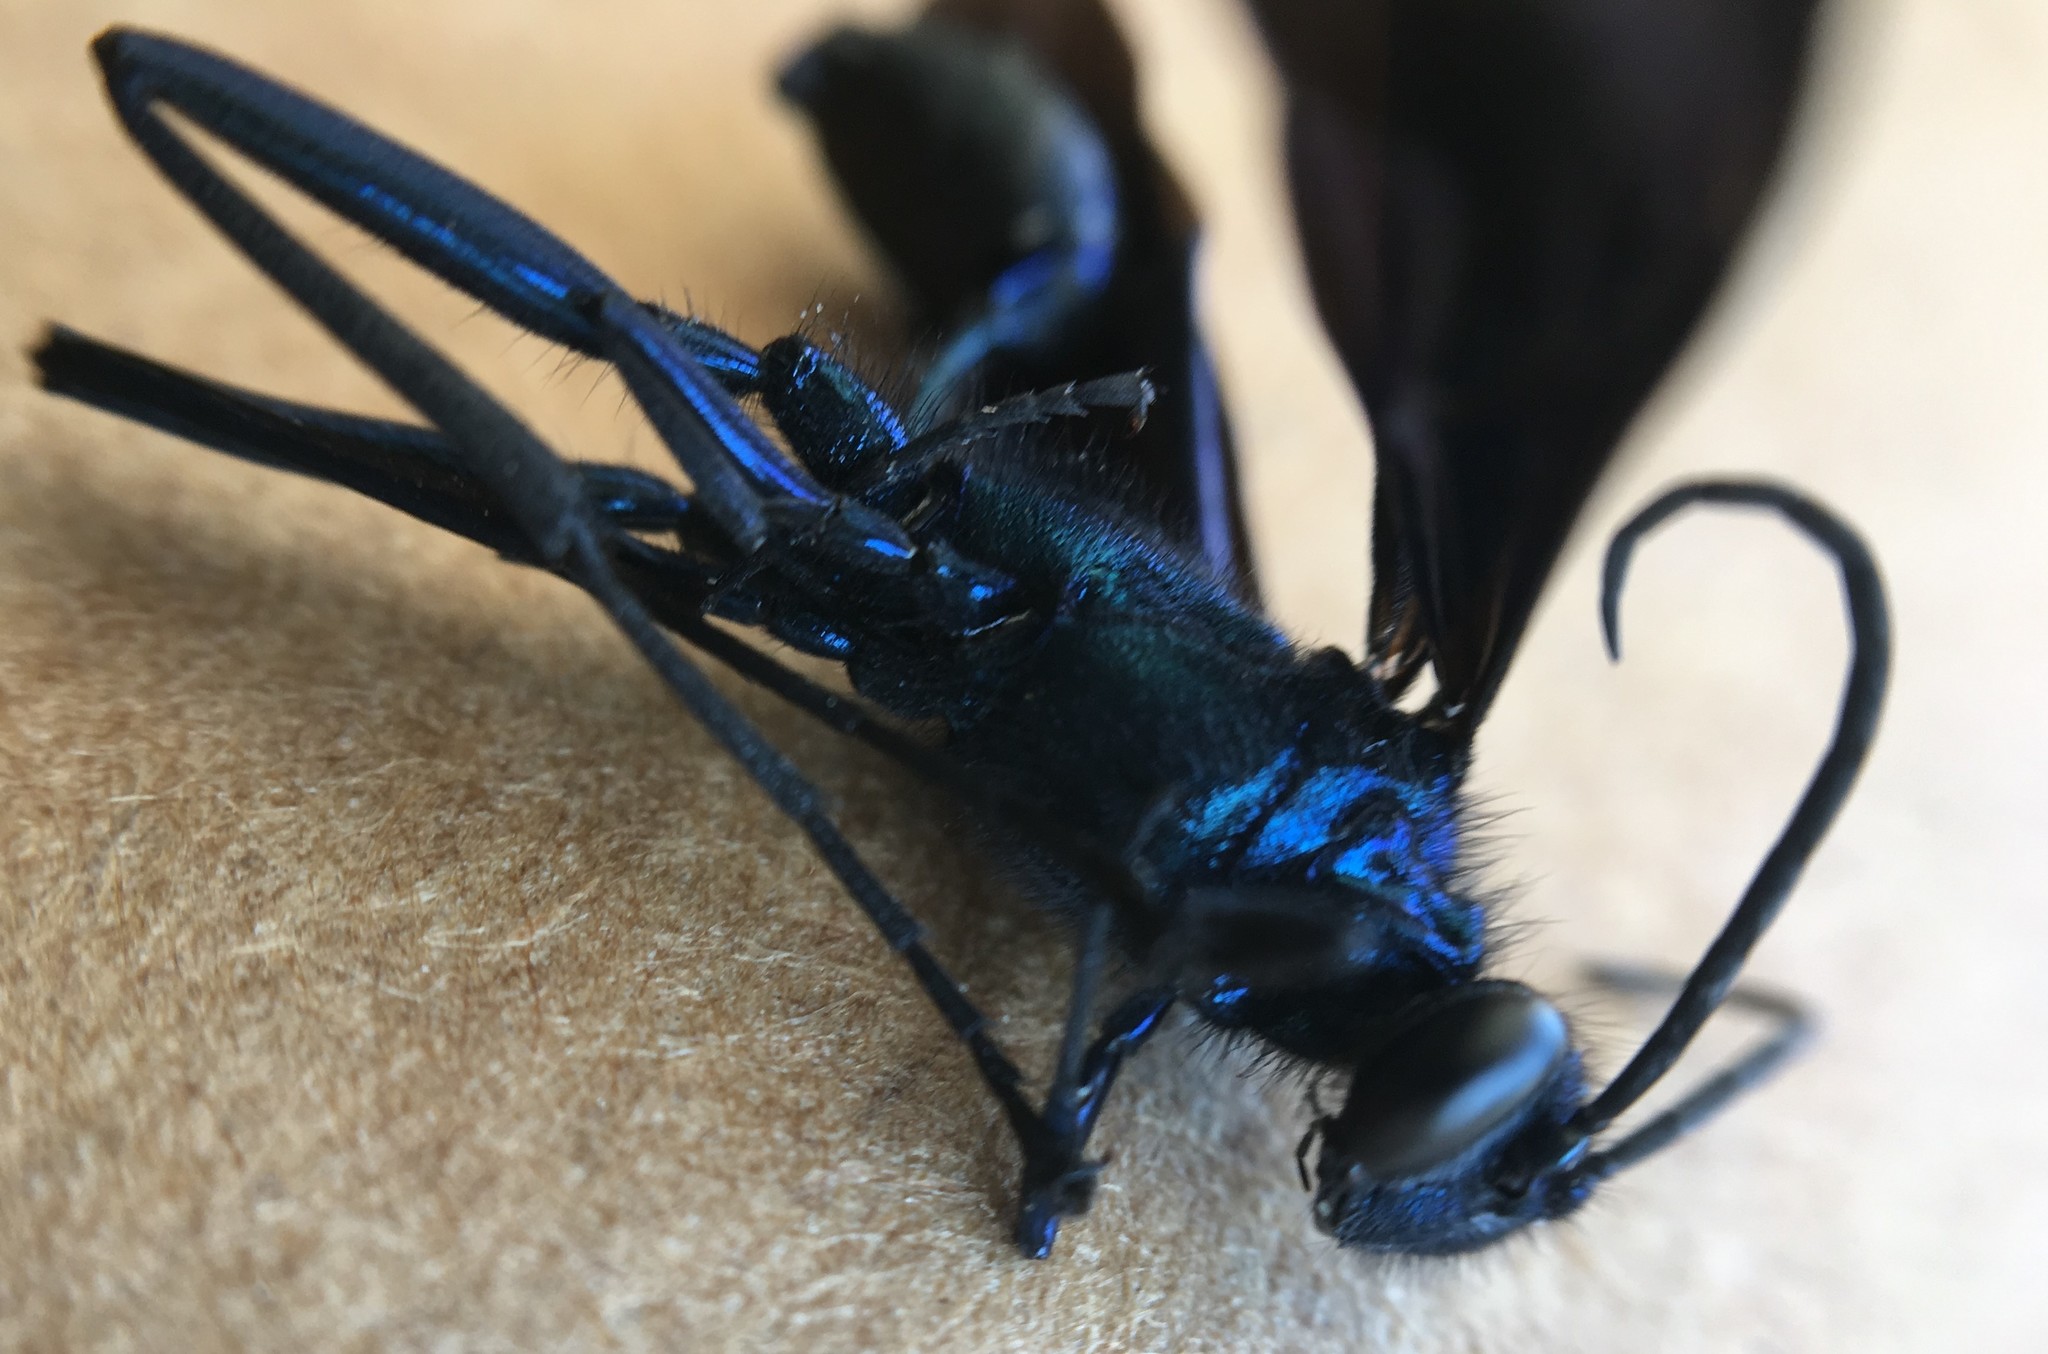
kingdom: Animalia
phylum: Arthropoda
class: Insecta
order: Hymenoptera
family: Sphecidae
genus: Chalybion
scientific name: Chalybion californicum
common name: Mud dauber
